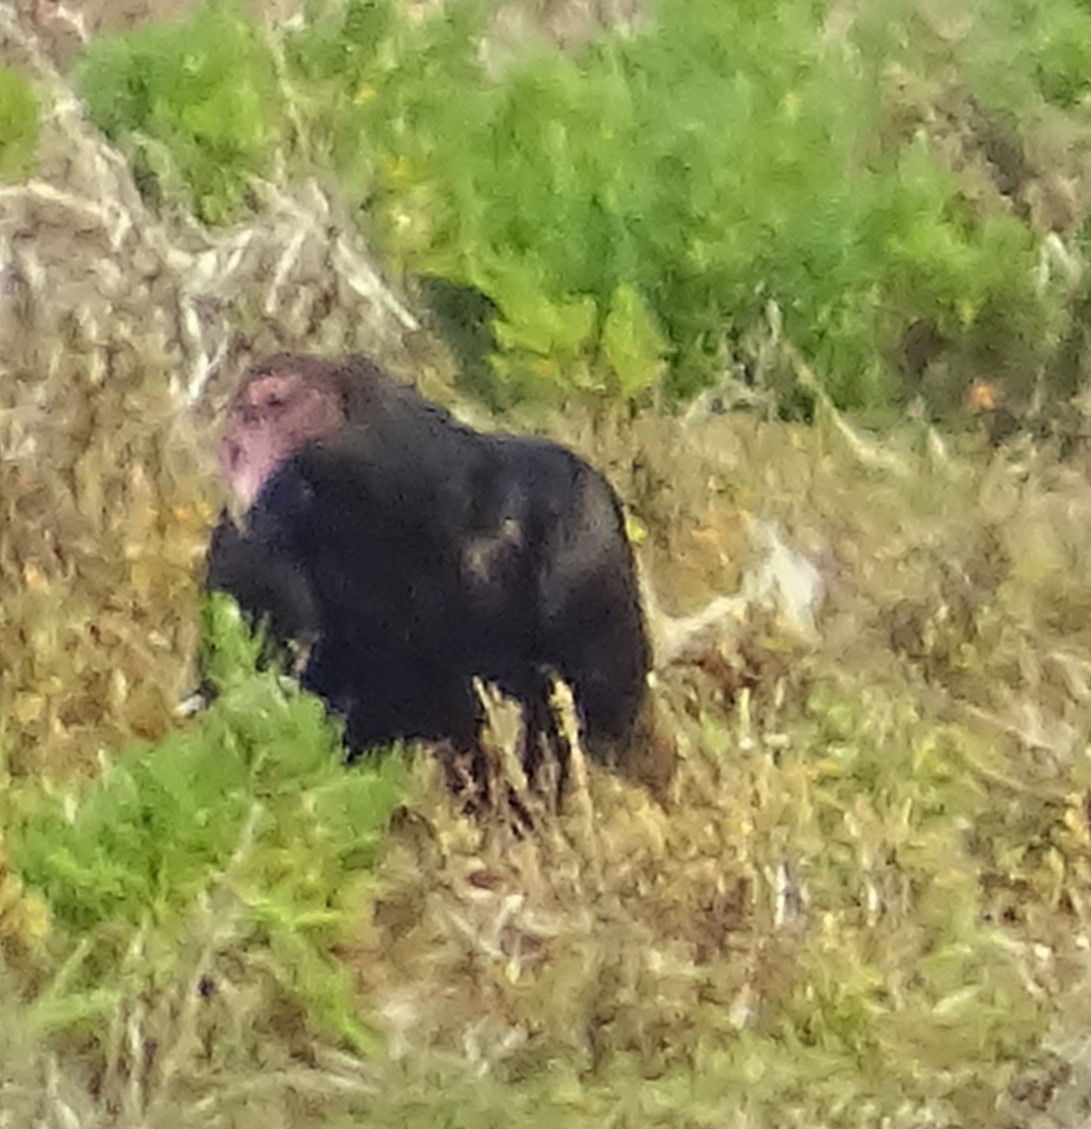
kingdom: Animalia
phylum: Chordata
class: Aves
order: Accipitriformes
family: Cathartidae
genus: Cathartes
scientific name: Cathartes aura
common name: Turkey vulture
